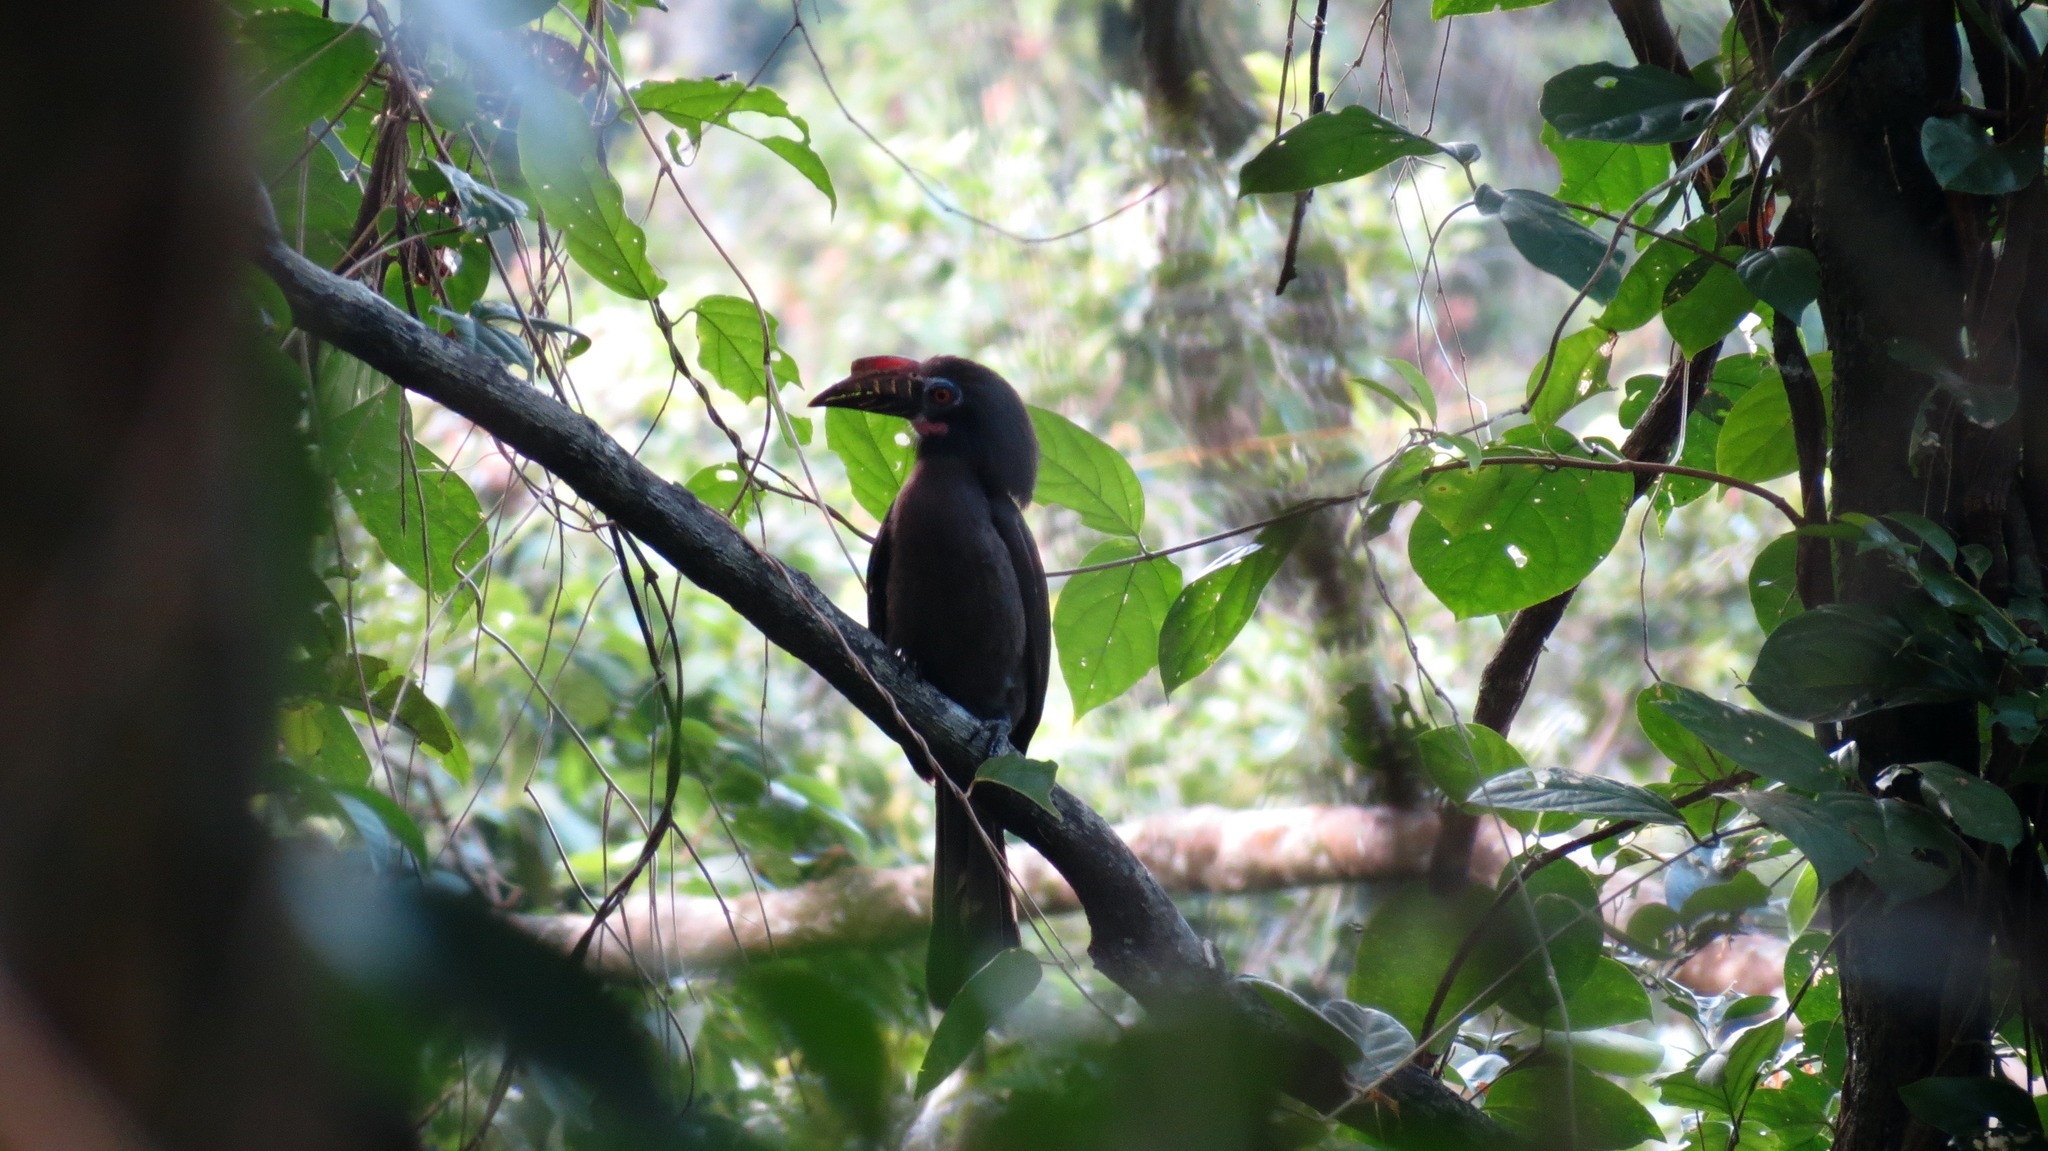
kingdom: Animalia
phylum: Chordata
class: Aves
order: Bucerotiformes
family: Bucerotidae
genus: Penelopides
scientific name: Penelopides manillae
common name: Luzon hornbill
